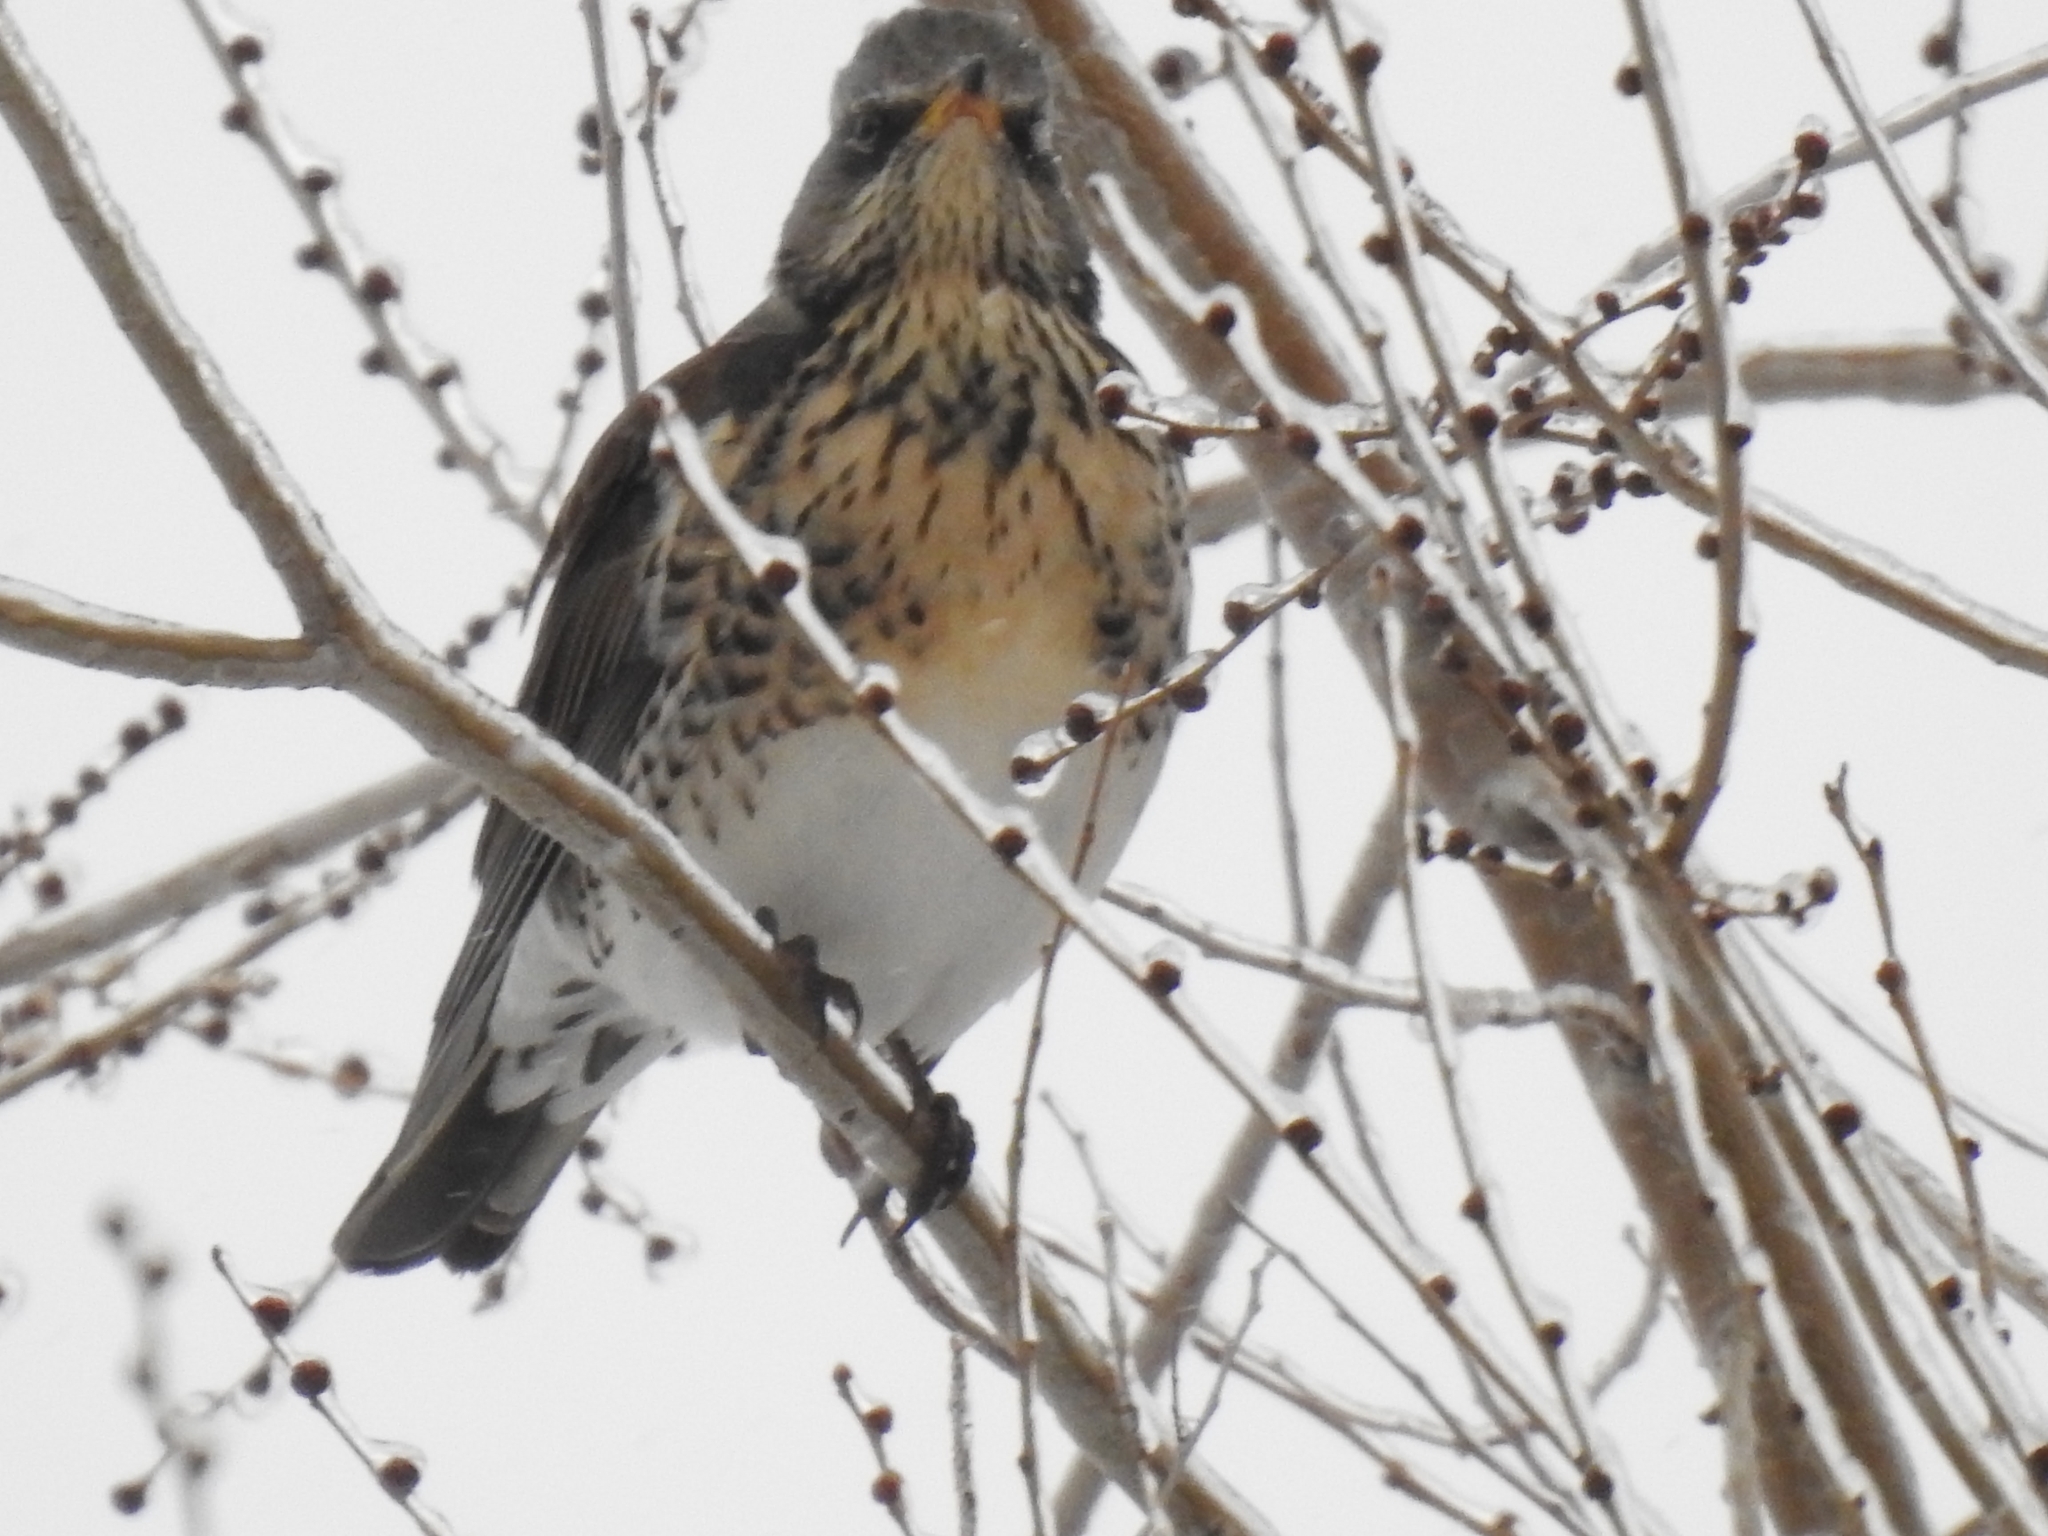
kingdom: Animalia
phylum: Chordata
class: Aves
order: Passeriformes
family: Turdidae
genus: Turdus
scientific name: Turdus pilaris
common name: Fieldfare
